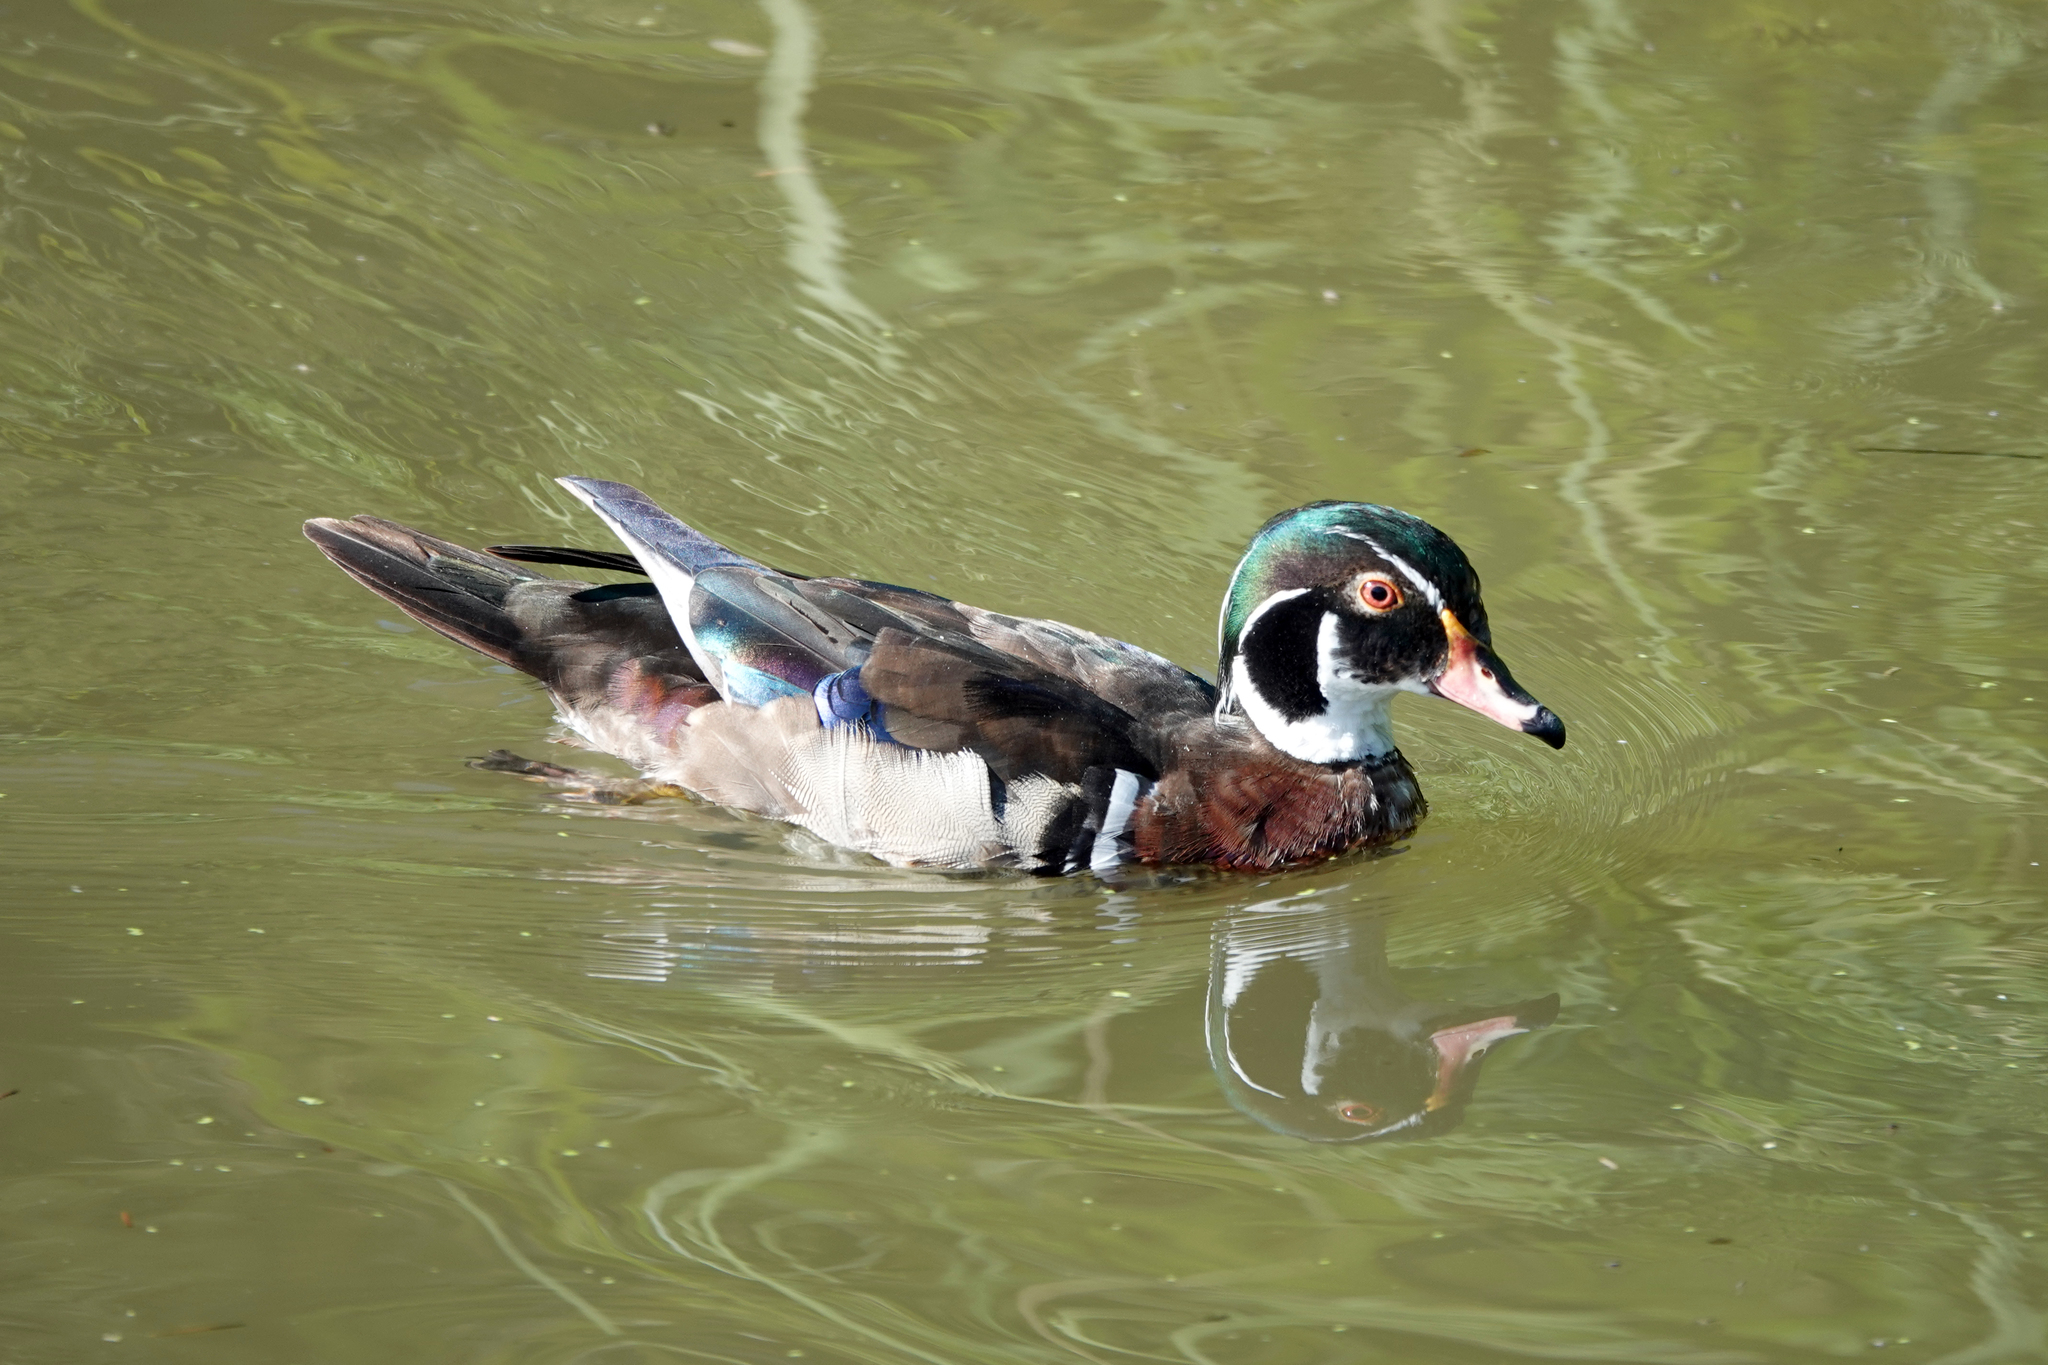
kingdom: Animalia
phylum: Chordata
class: Aves
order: Anseriformes
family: Anatidae
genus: Aix
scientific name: Aix sponsa
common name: Wood duck
